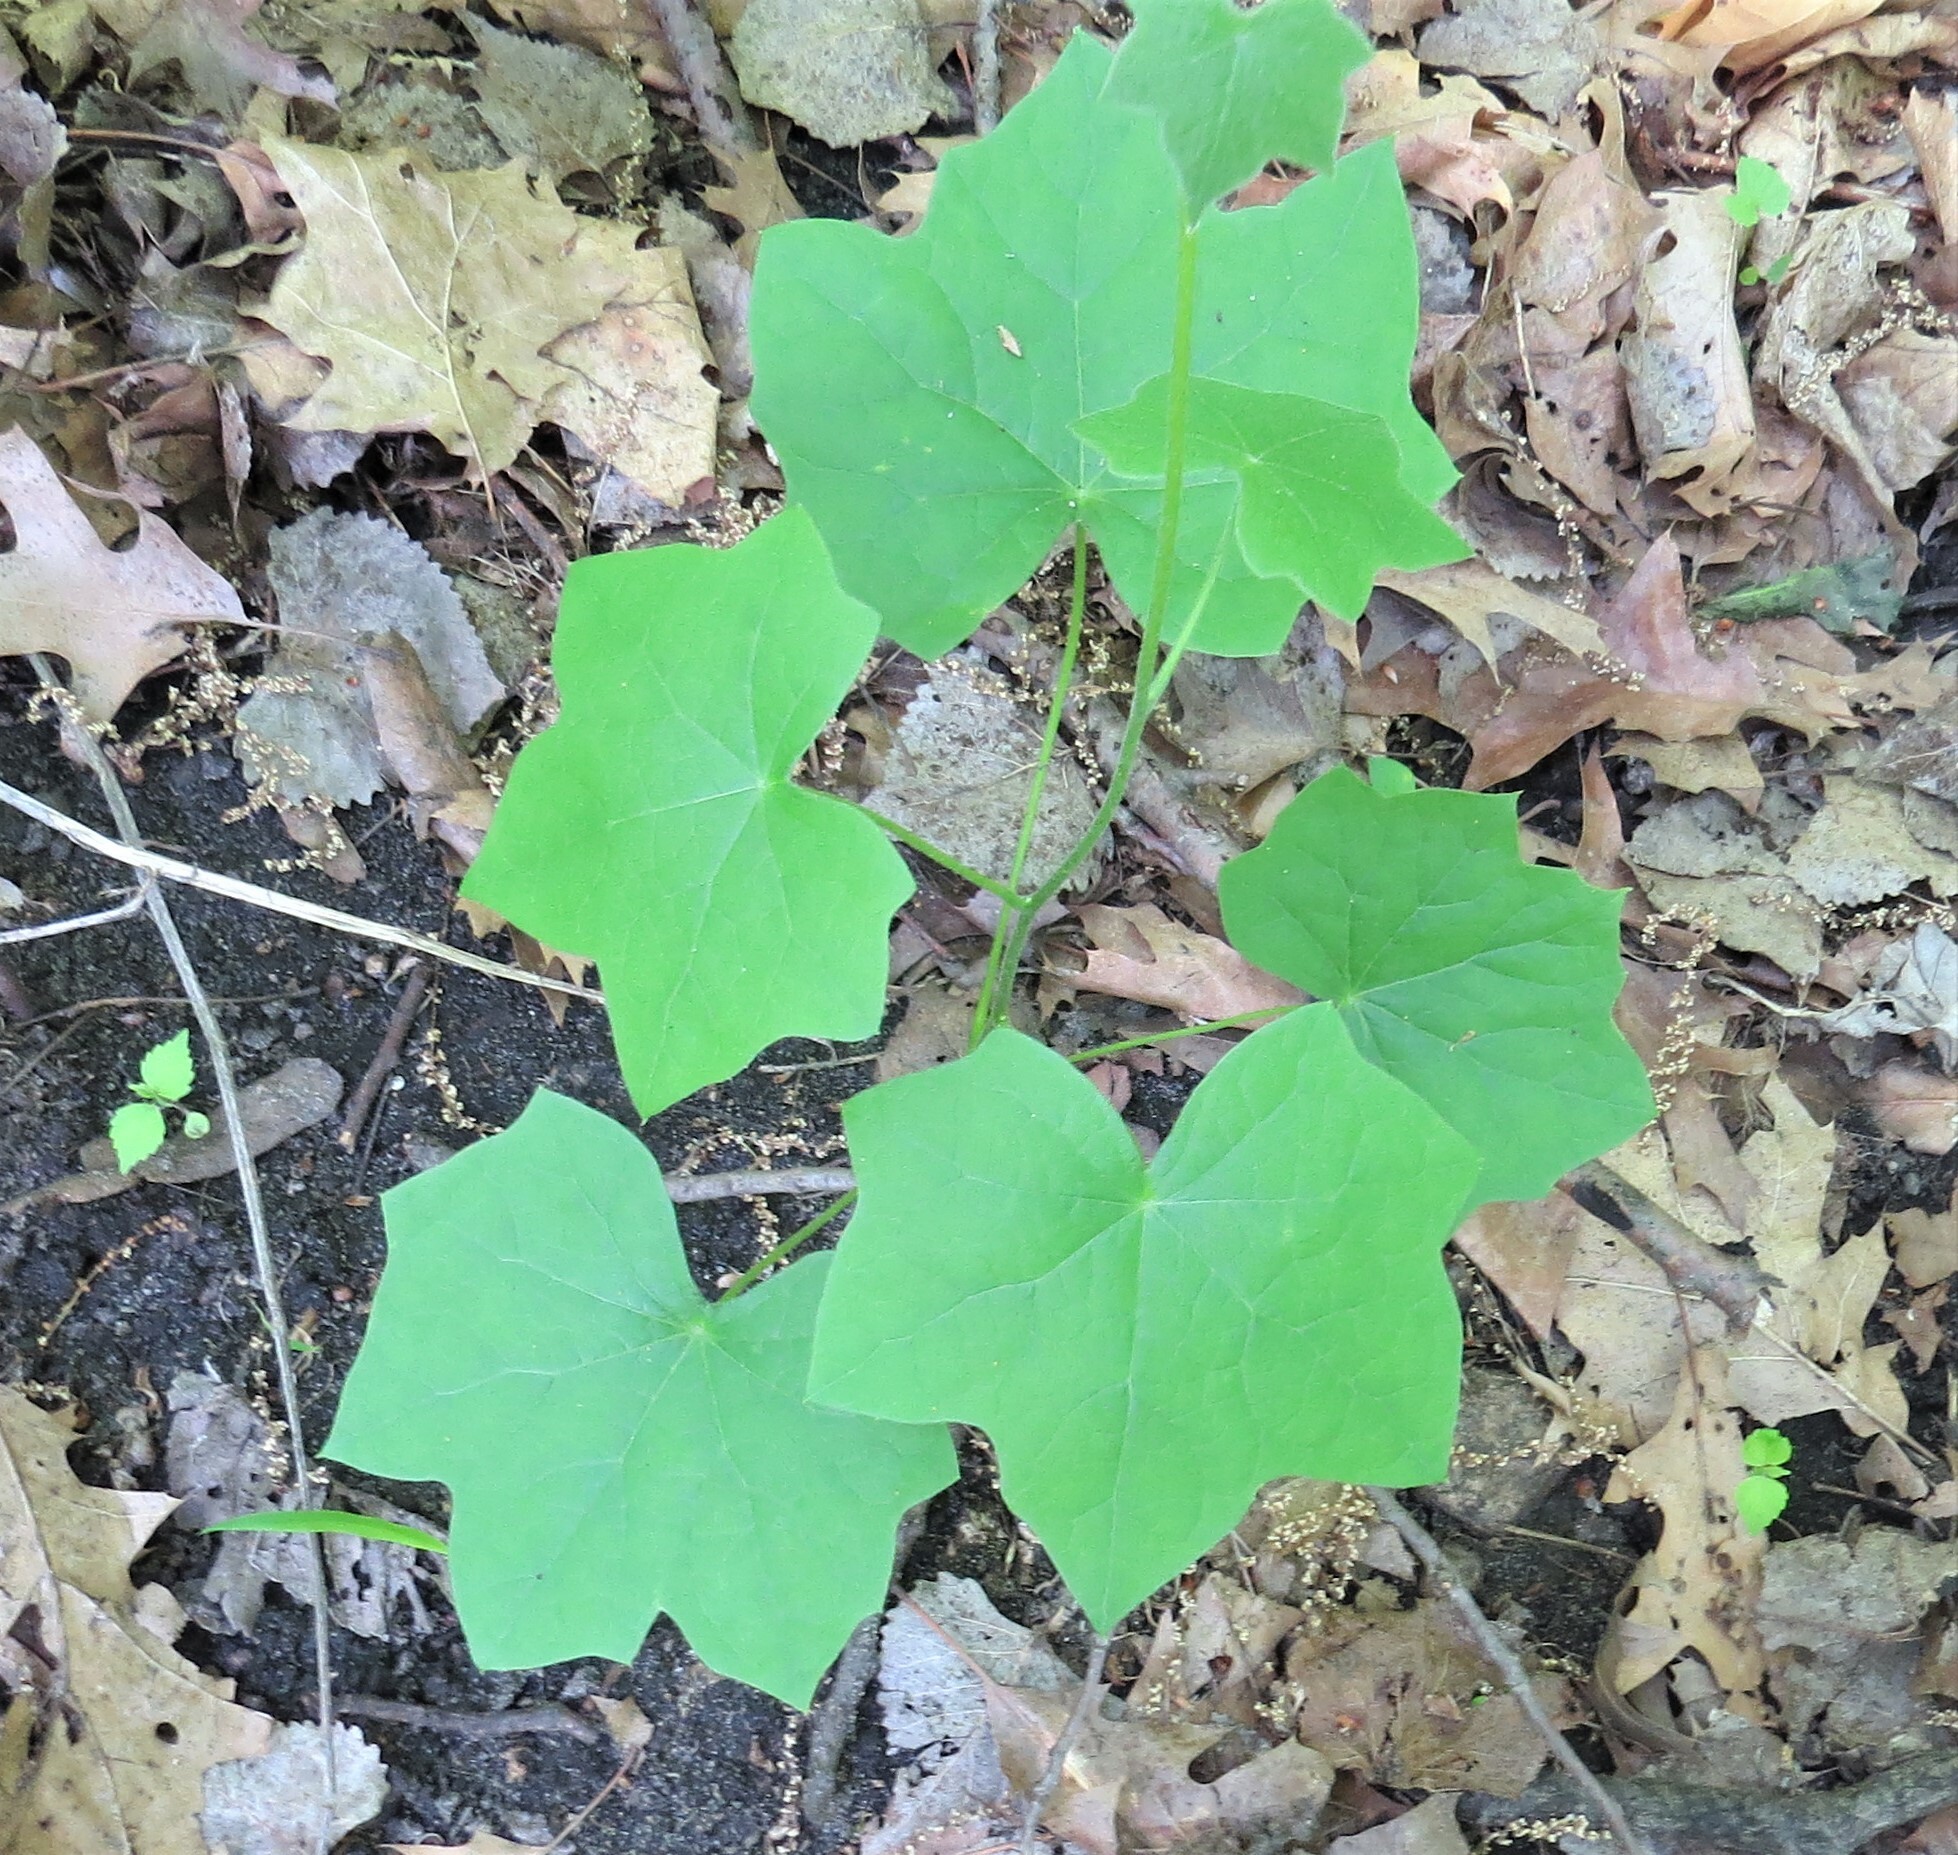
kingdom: Plantae
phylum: Tracheophyta
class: Magnoliopsida
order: Ranunculales
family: Menispermaceae
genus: Menispermum
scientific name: Menispermum canadense
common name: Moonseed
